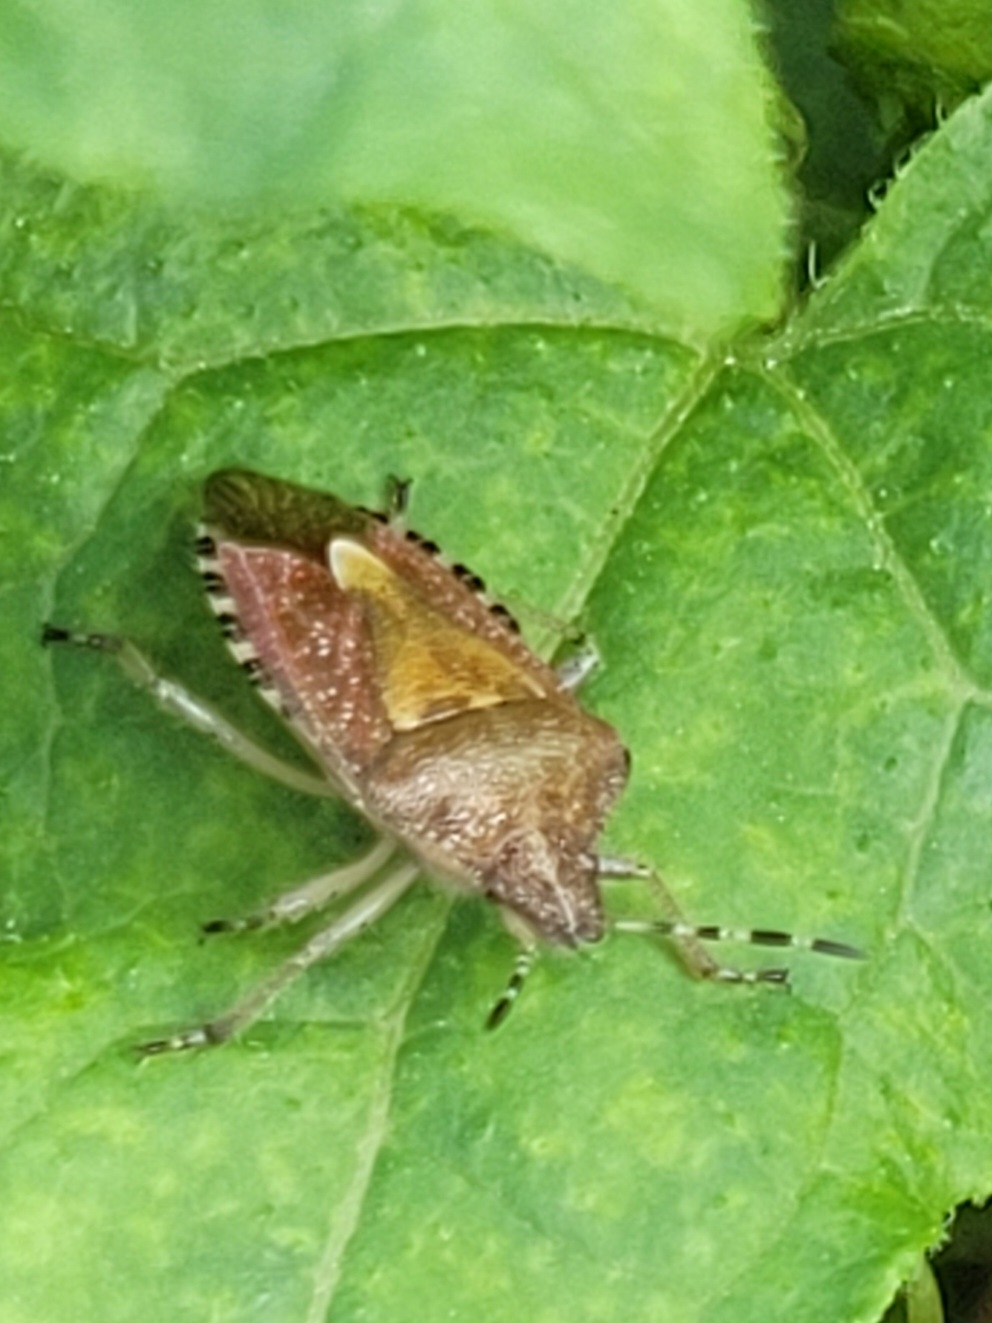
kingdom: Animalia
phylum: Arthropoda
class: Insecta
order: Hemiptera
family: Pentatomidae
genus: Dolycoris
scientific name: Dolycoris baccarum
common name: Sloe bug
